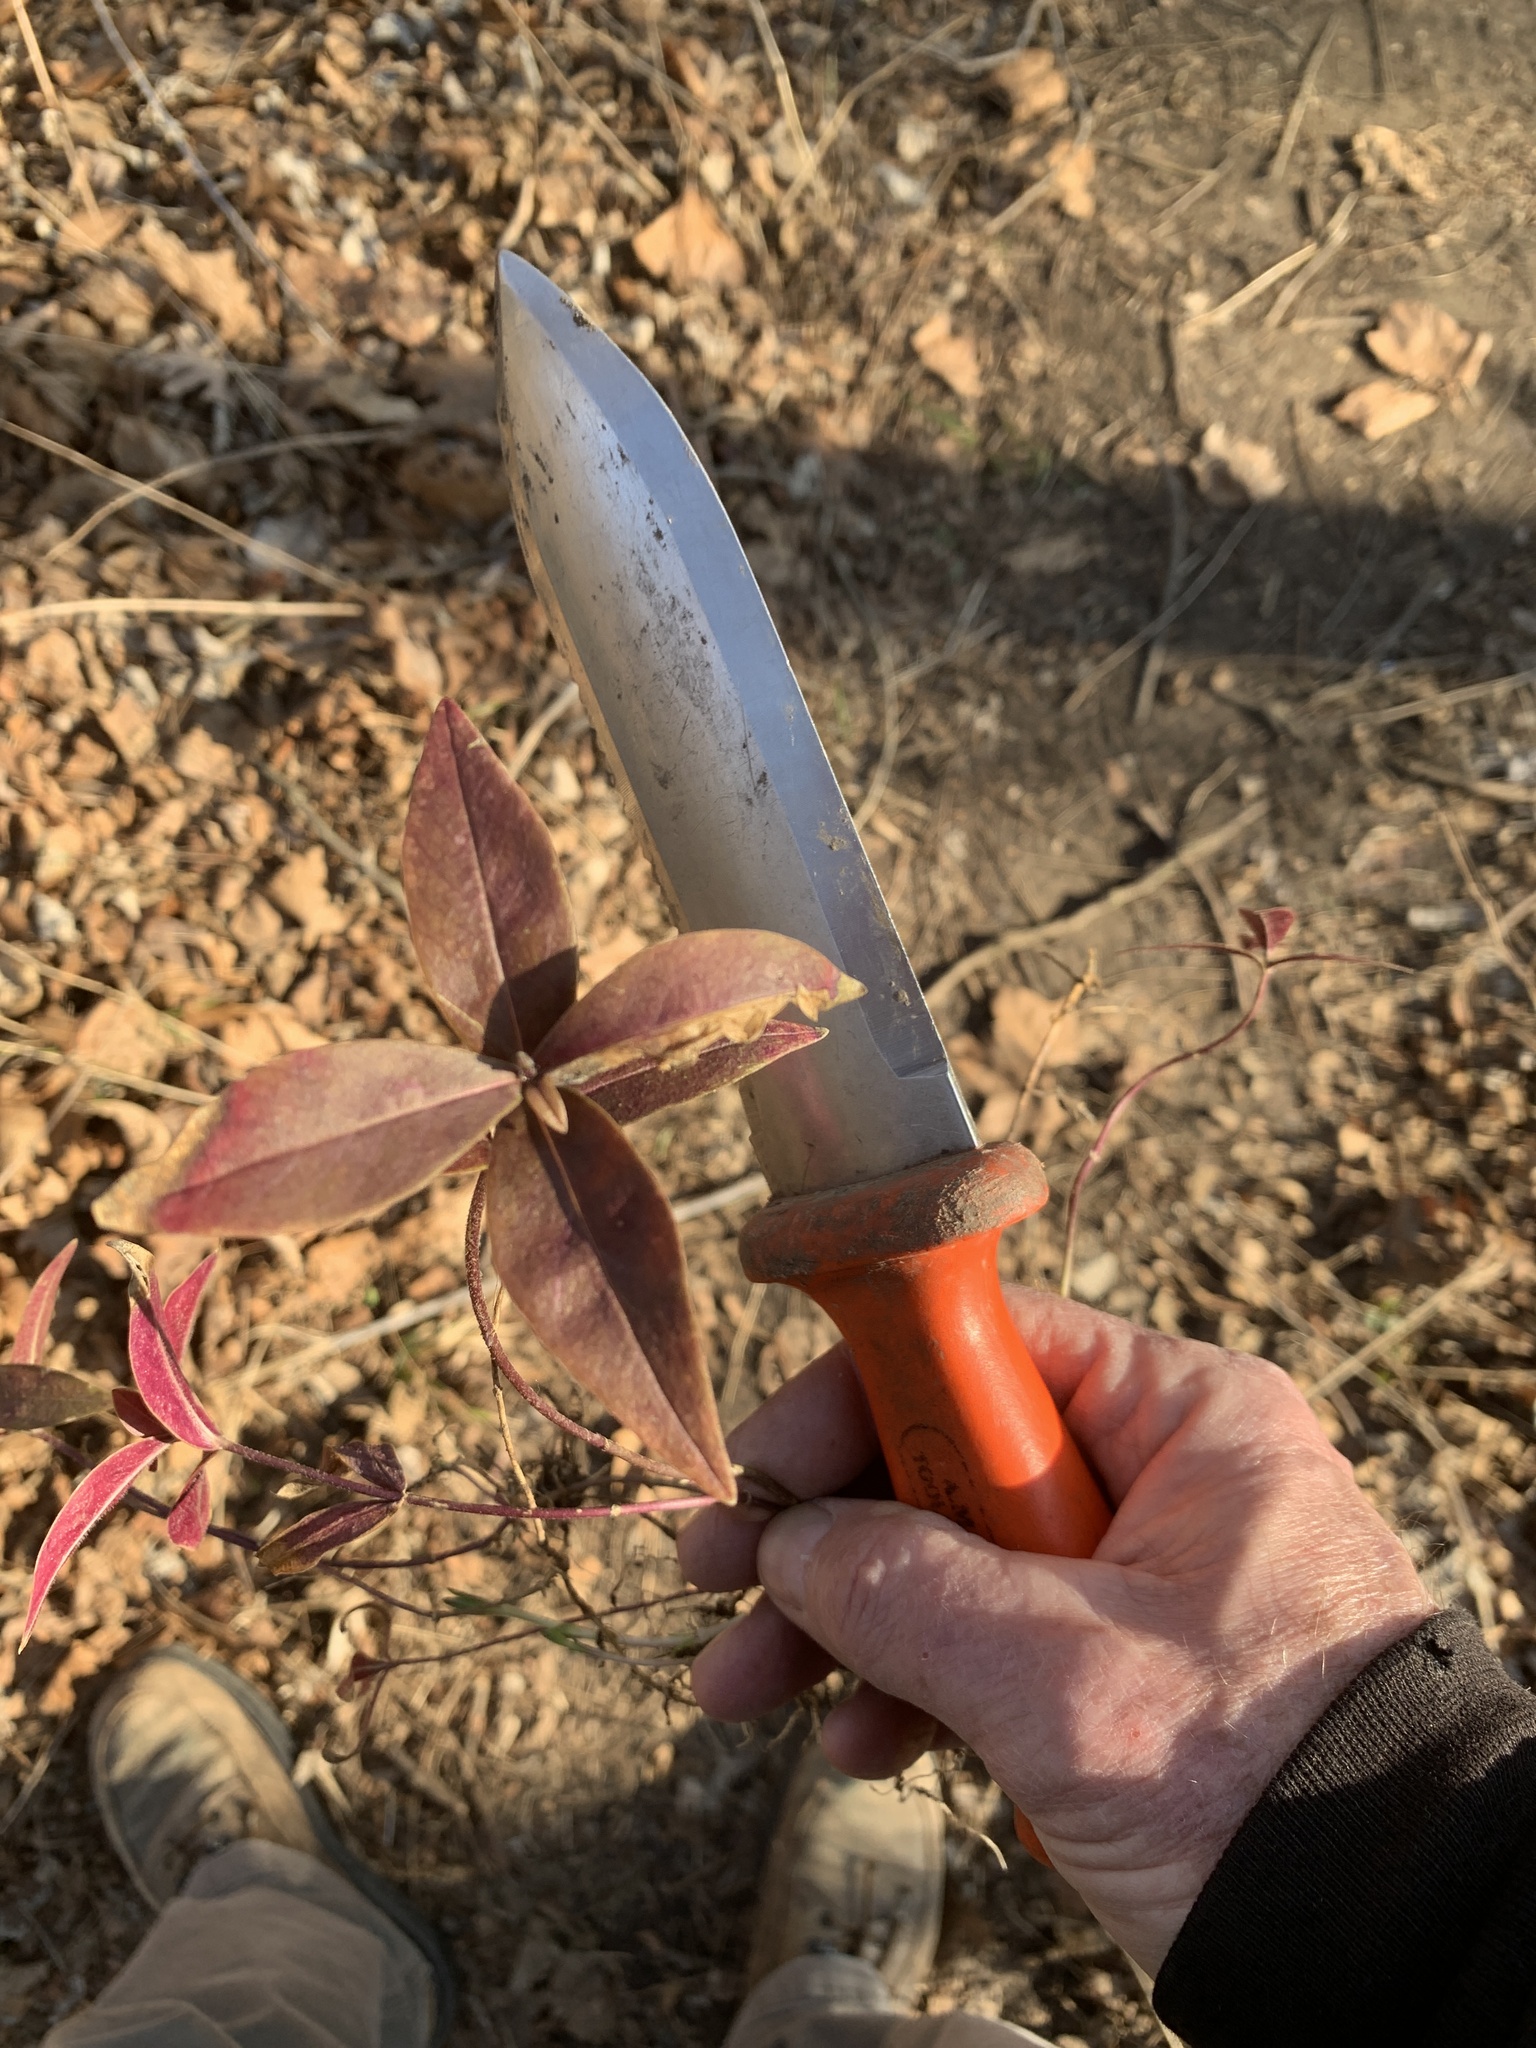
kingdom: Plantae
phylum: Tracheophyta
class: Magnoliopsida
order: Celastrales
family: Celastraceae
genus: Euonymus
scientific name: Euonymus alatus
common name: Winged euonymus
